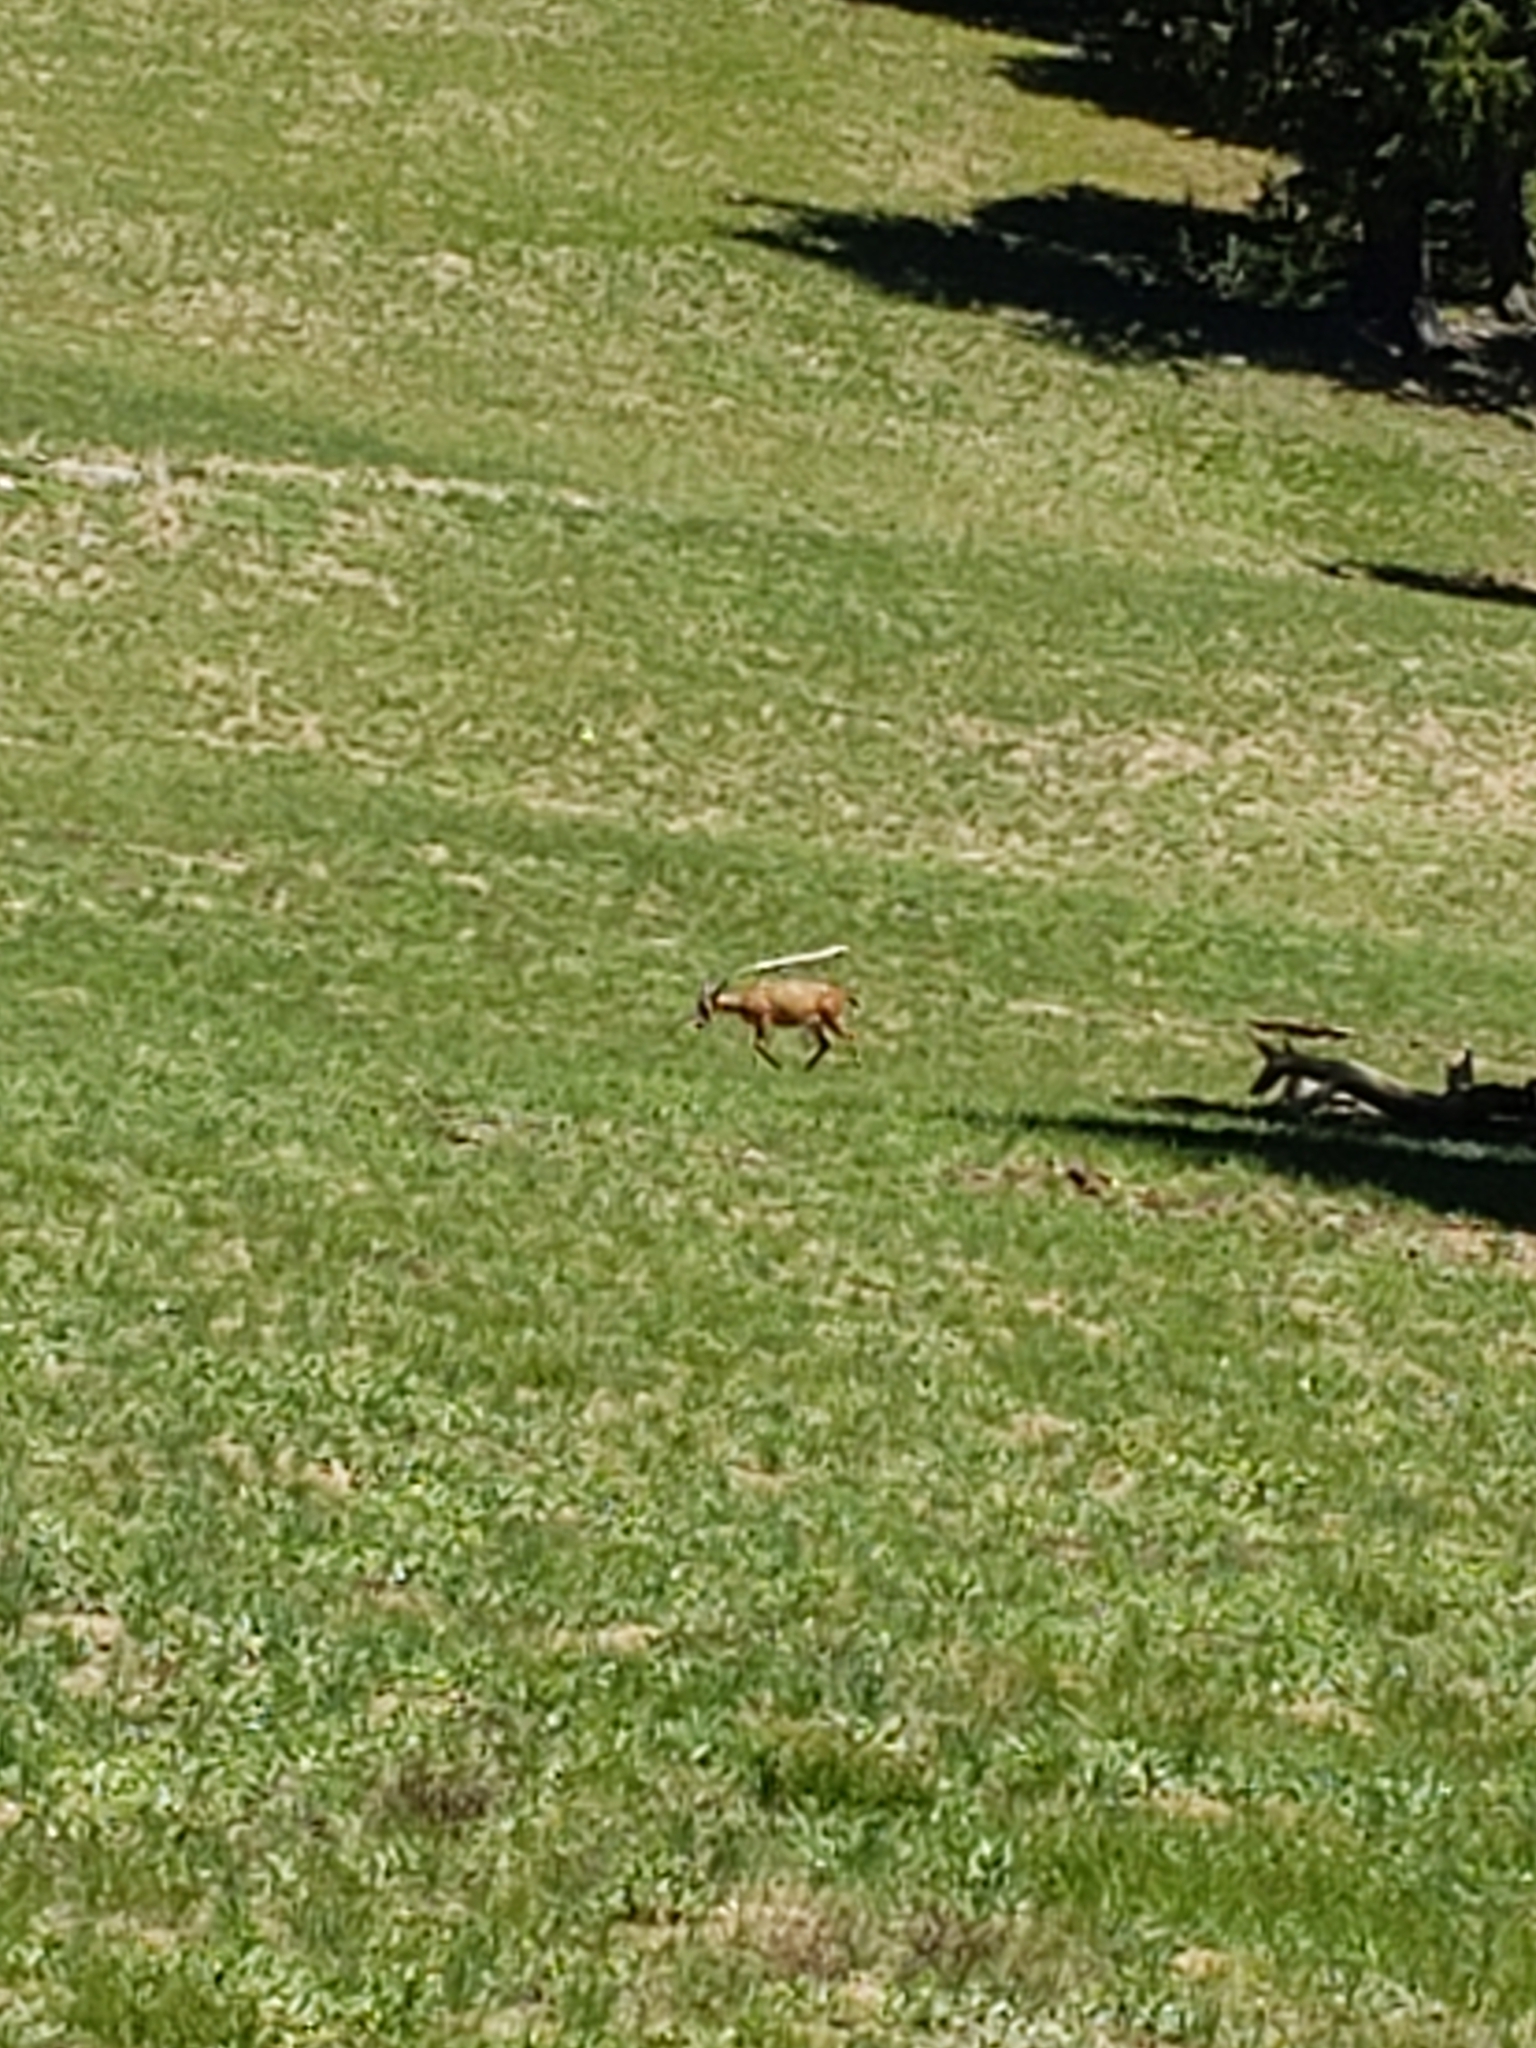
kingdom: Animalia
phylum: Chordata
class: Mammalia
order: Artiodactyla
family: Cervidae
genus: Odocoileus
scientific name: Odocoileus hemionus
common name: Mule deer
